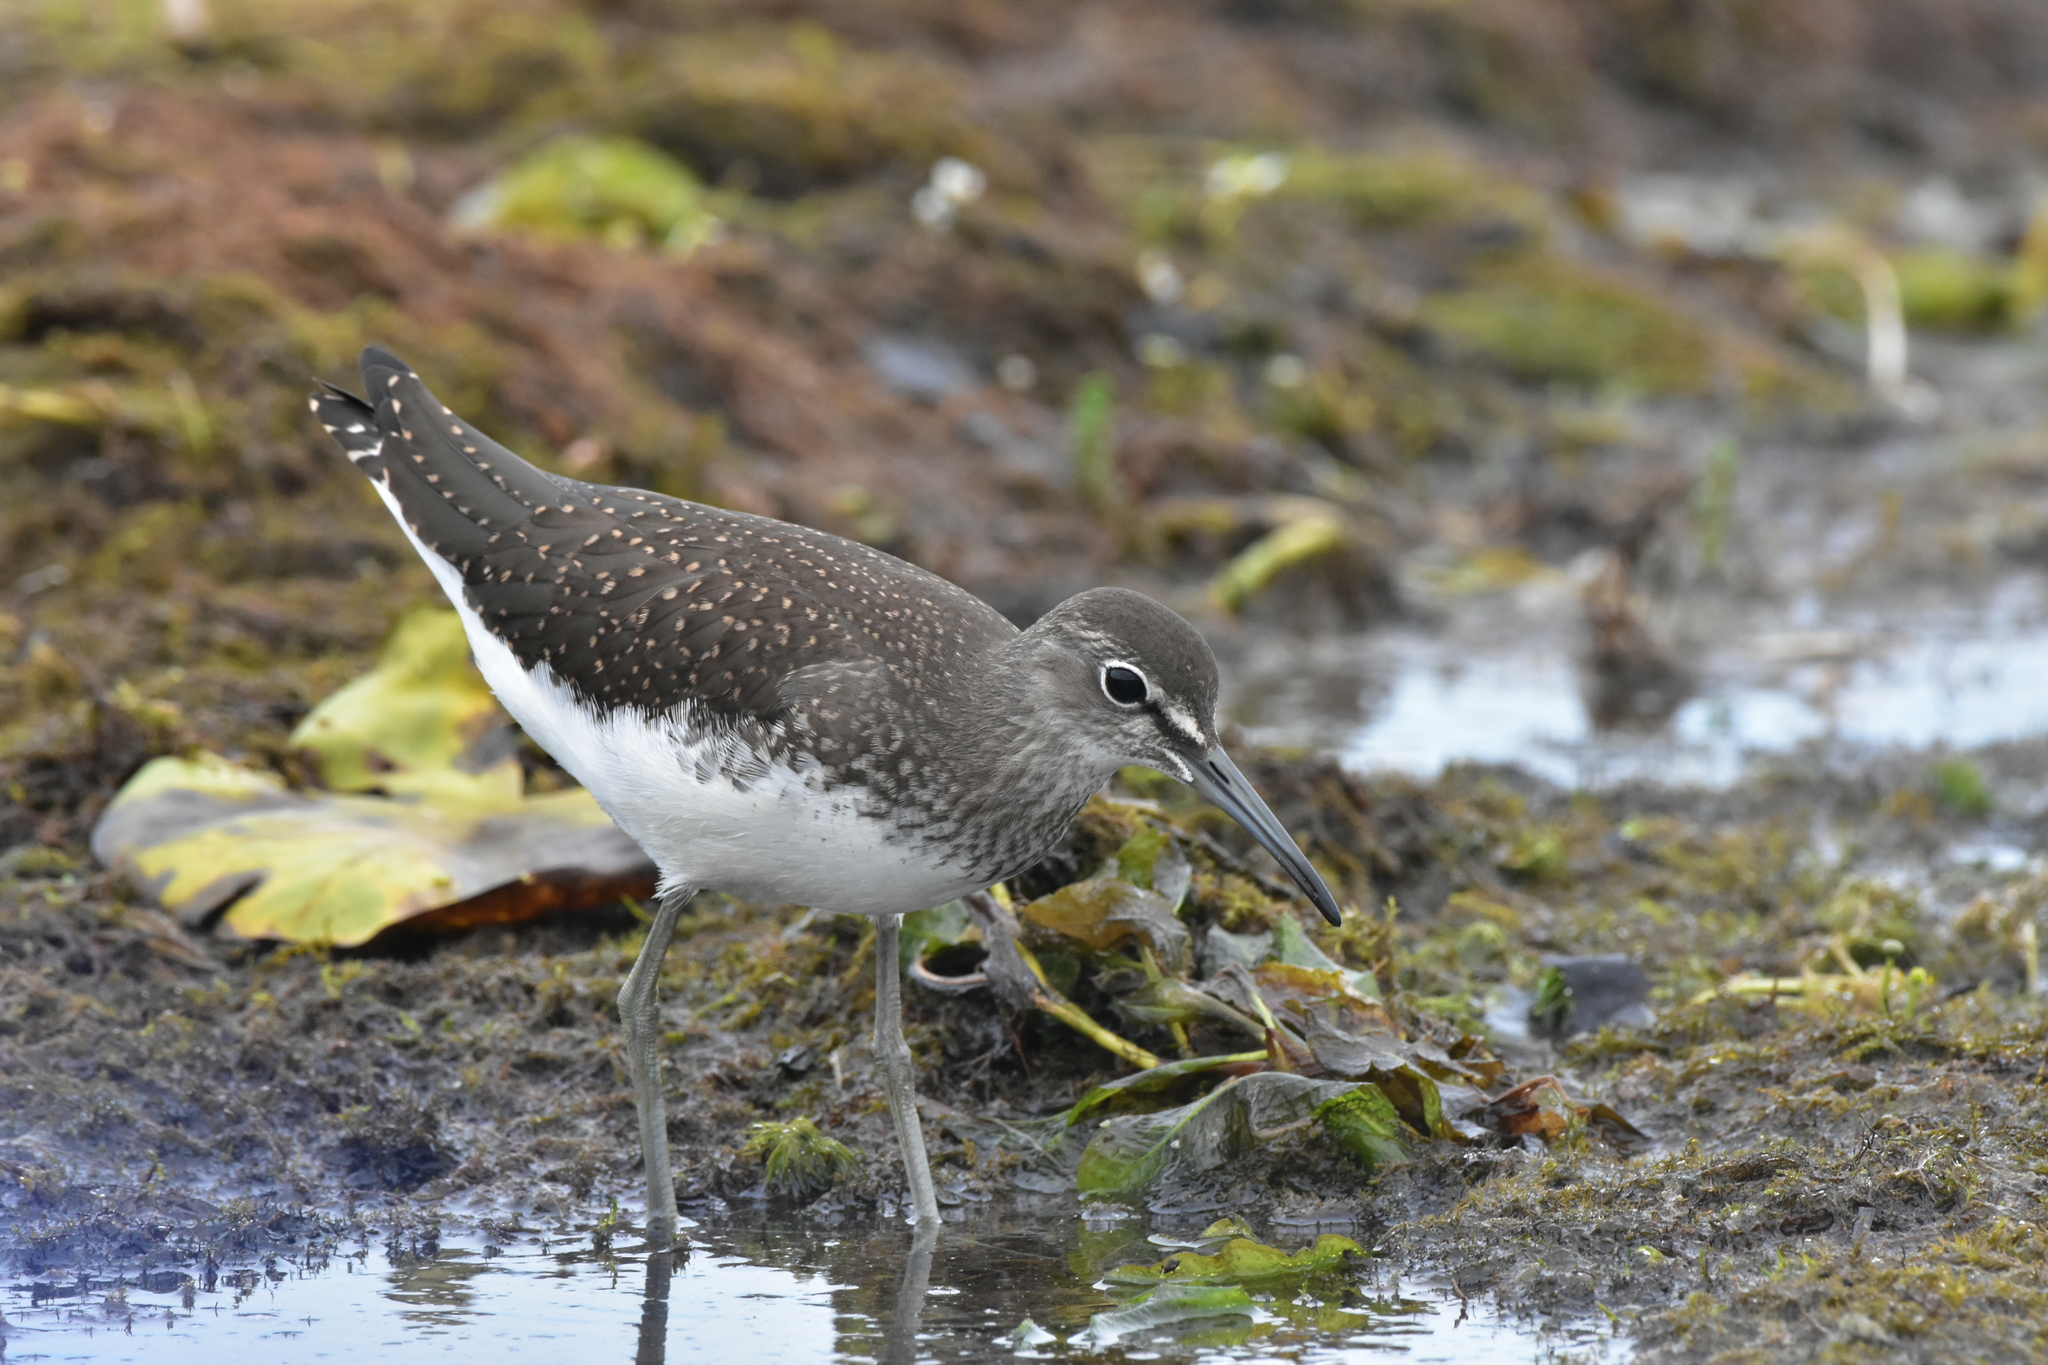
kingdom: Animalia
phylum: Chordata
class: Aves
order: Charadriiformes
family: Scolopacidae
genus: Tringa
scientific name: Tringa ochropus
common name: Green sandpiper
